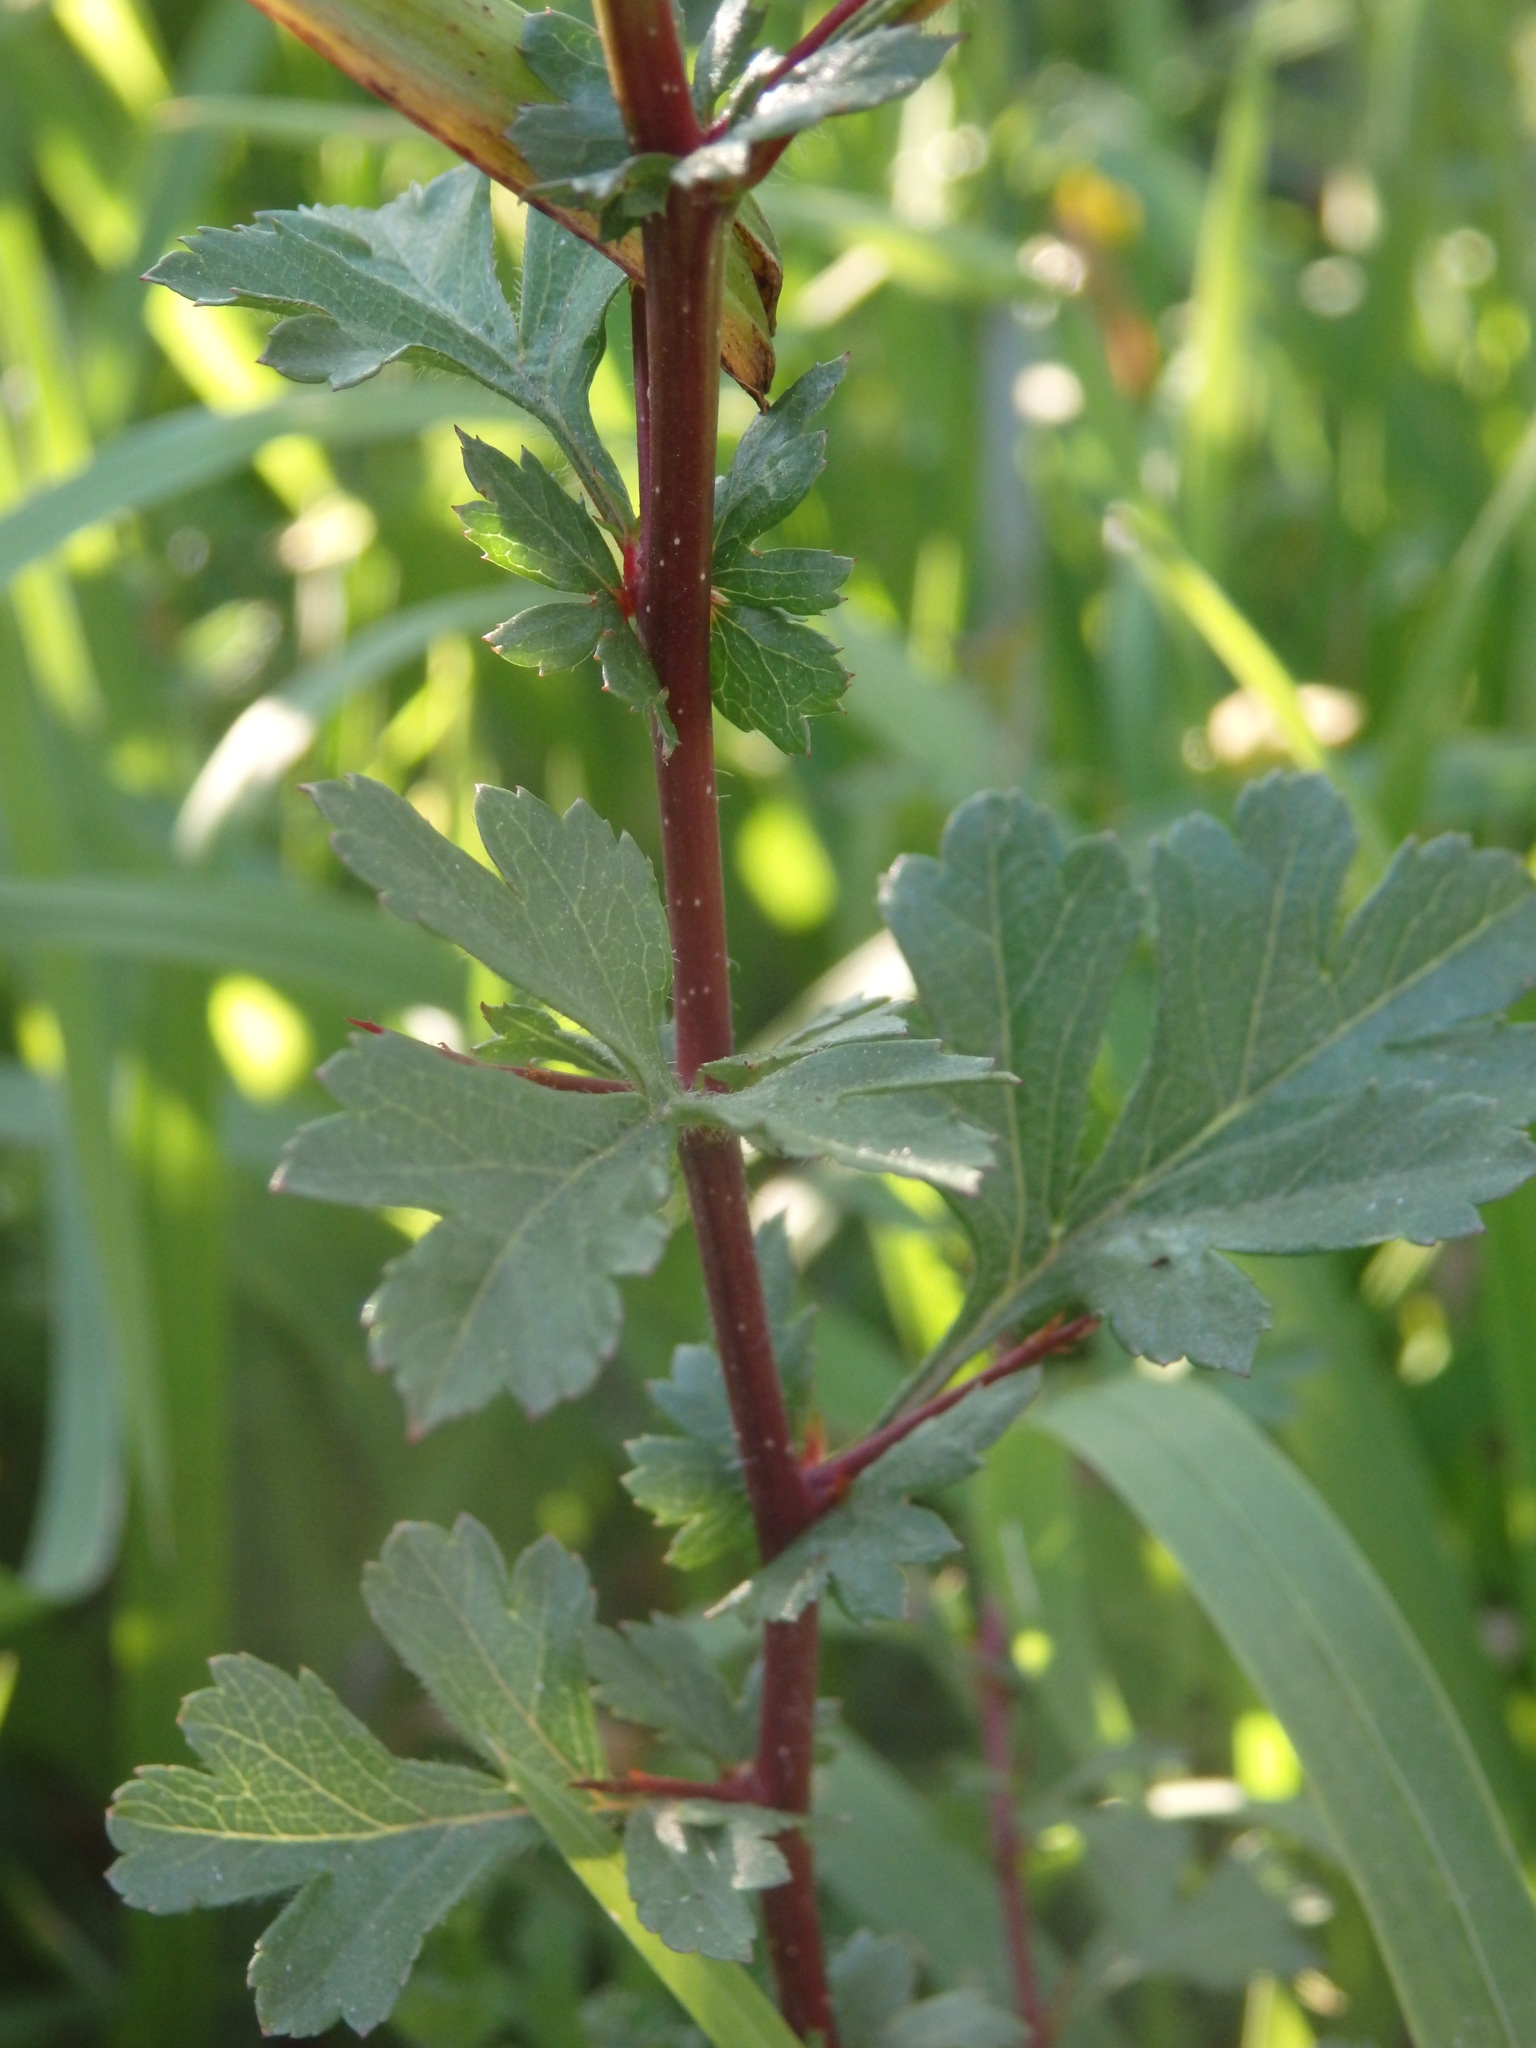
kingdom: Plantae
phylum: Tracheophyta
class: Magnoliopsida
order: Rosales
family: Rosaceae
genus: Crataegus
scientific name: Crataegus monogyna
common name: Hawthorn
